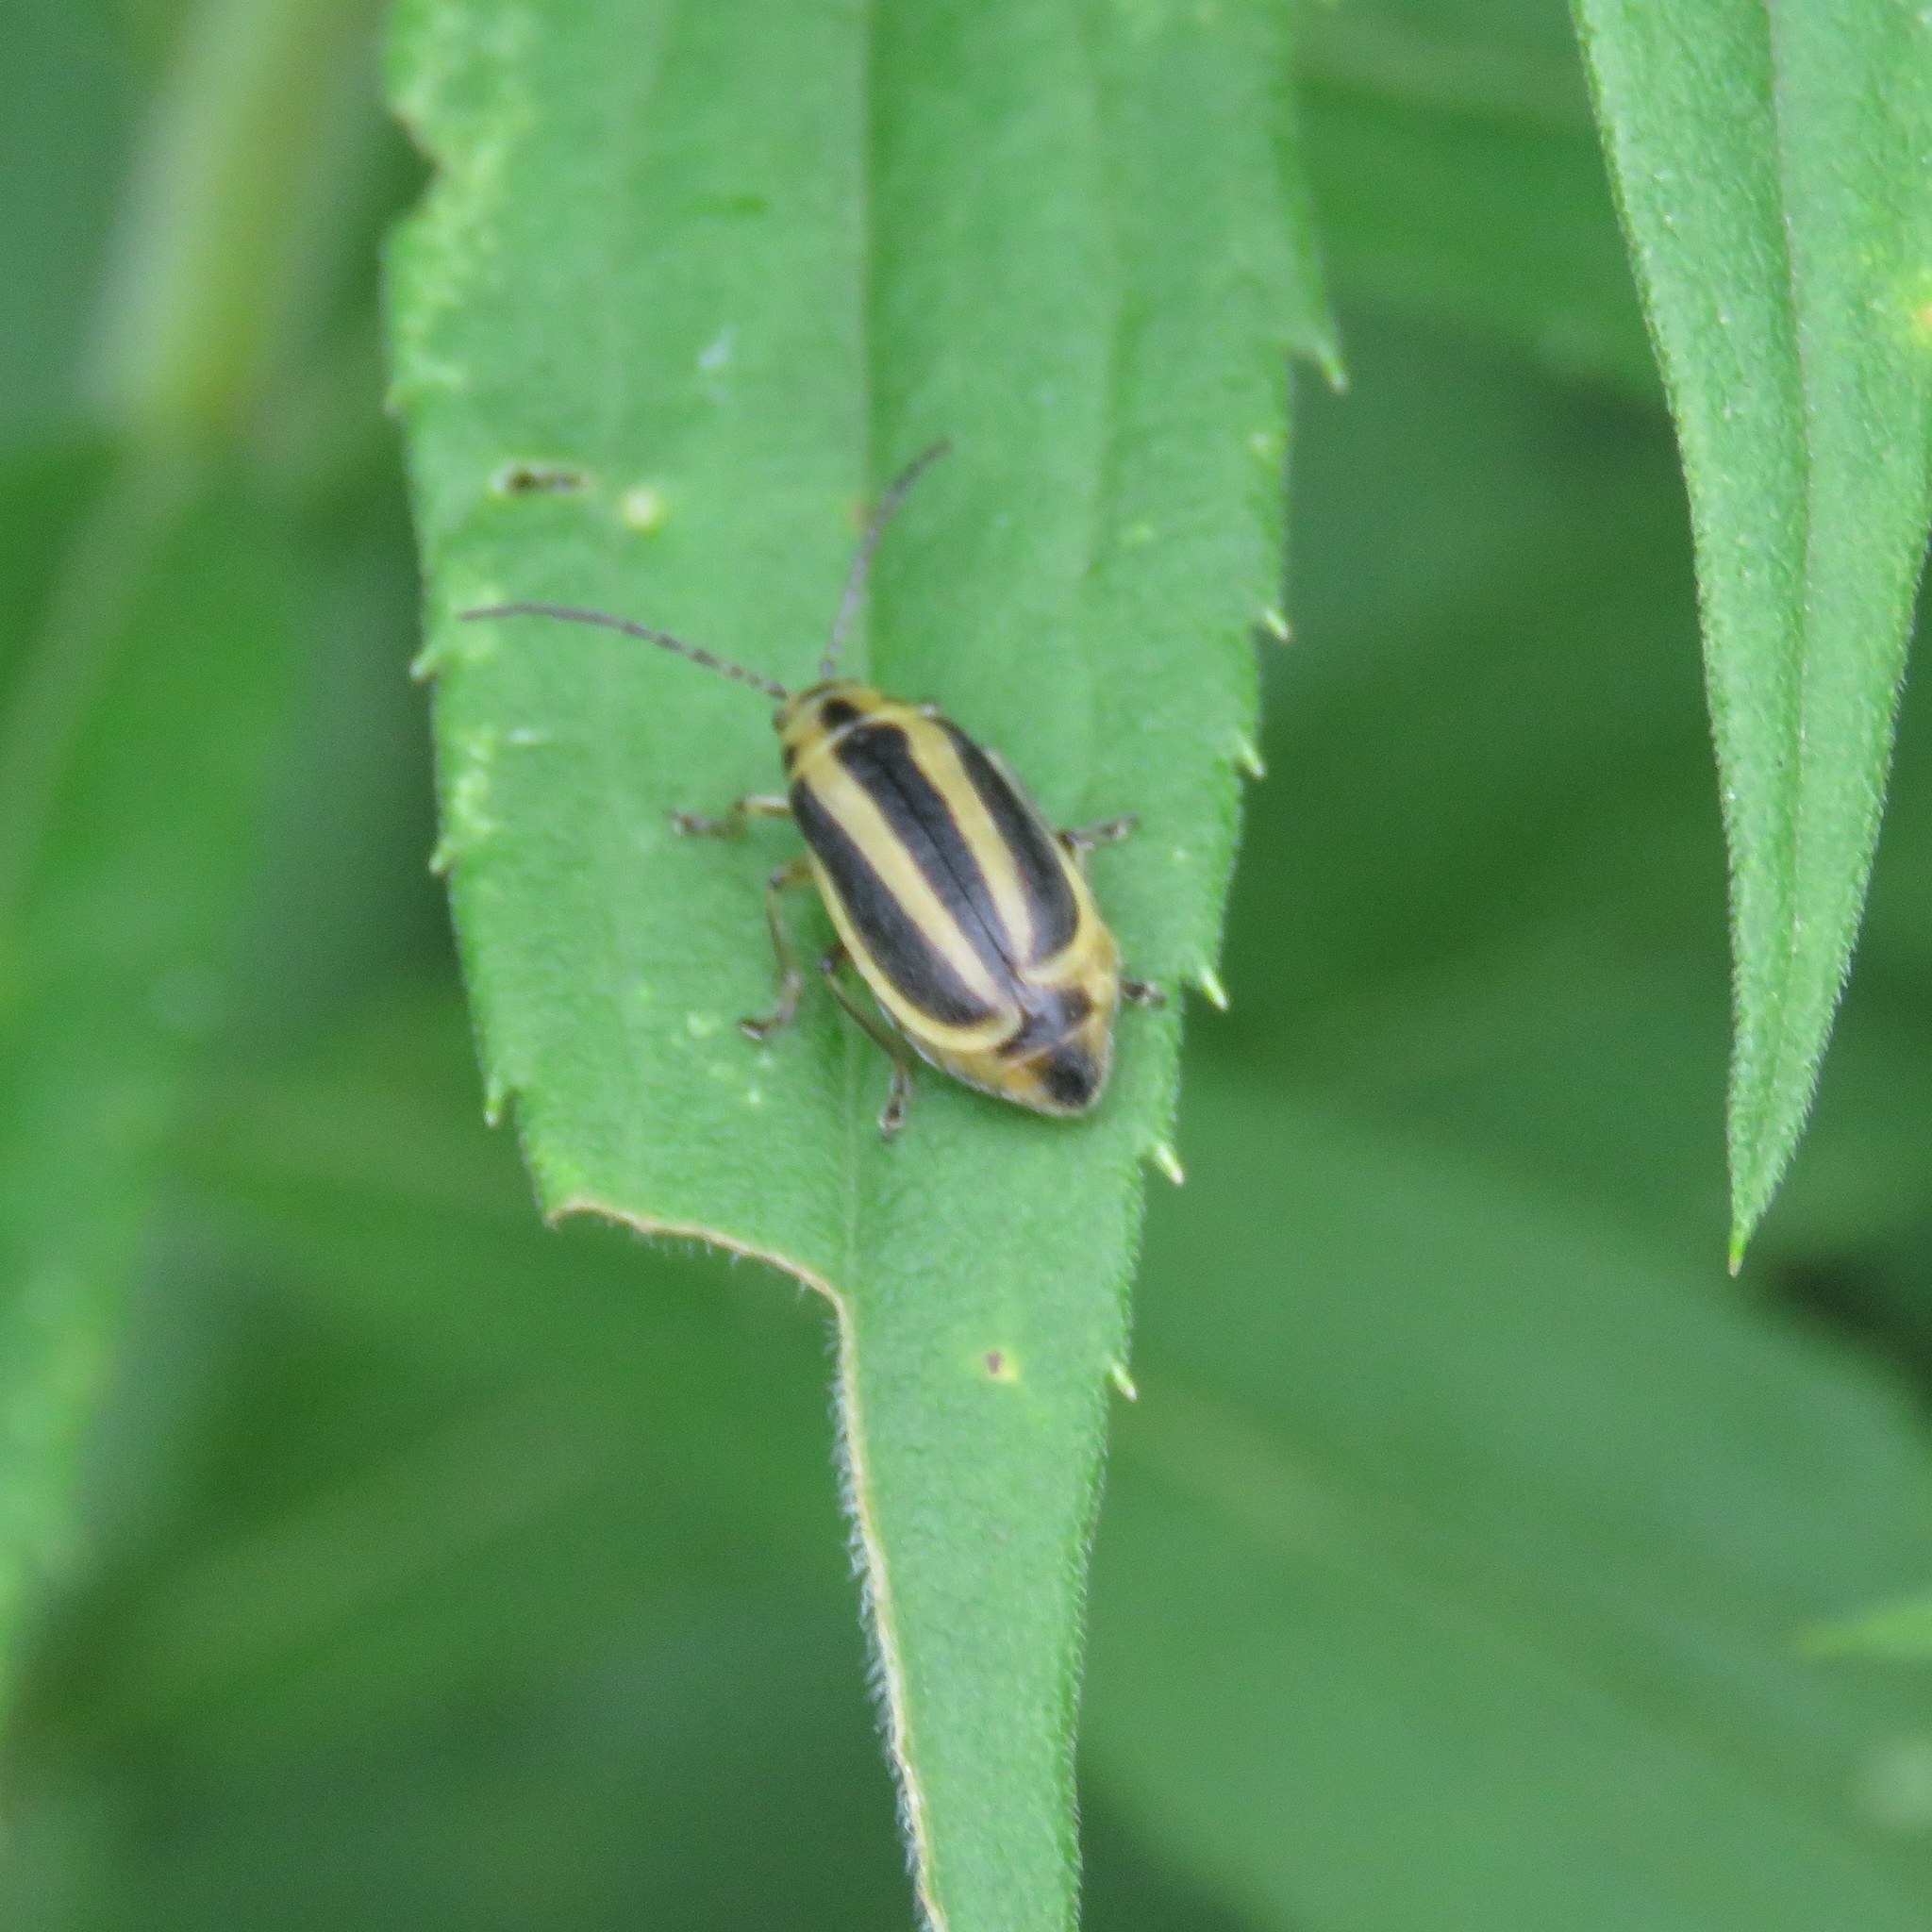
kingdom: Animalia
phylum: Arthropoda
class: Insecta
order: Coleoptera
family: Chrysomelidae
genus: Trirhabda
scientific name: Trirhabda canadensis
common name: Goldenrod leaf beetle
